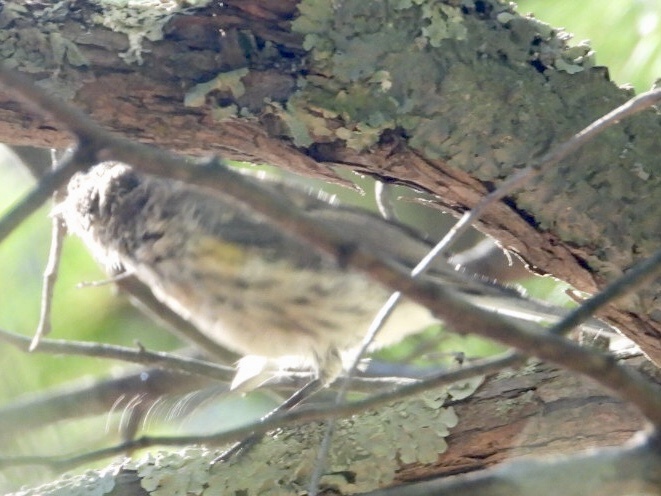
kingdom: Animalia
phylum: Chordata
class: Aves
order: Passeriformes
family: Parulidae
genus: Setophaga
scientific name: Setophaga coronata
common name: Myrtle warbler
